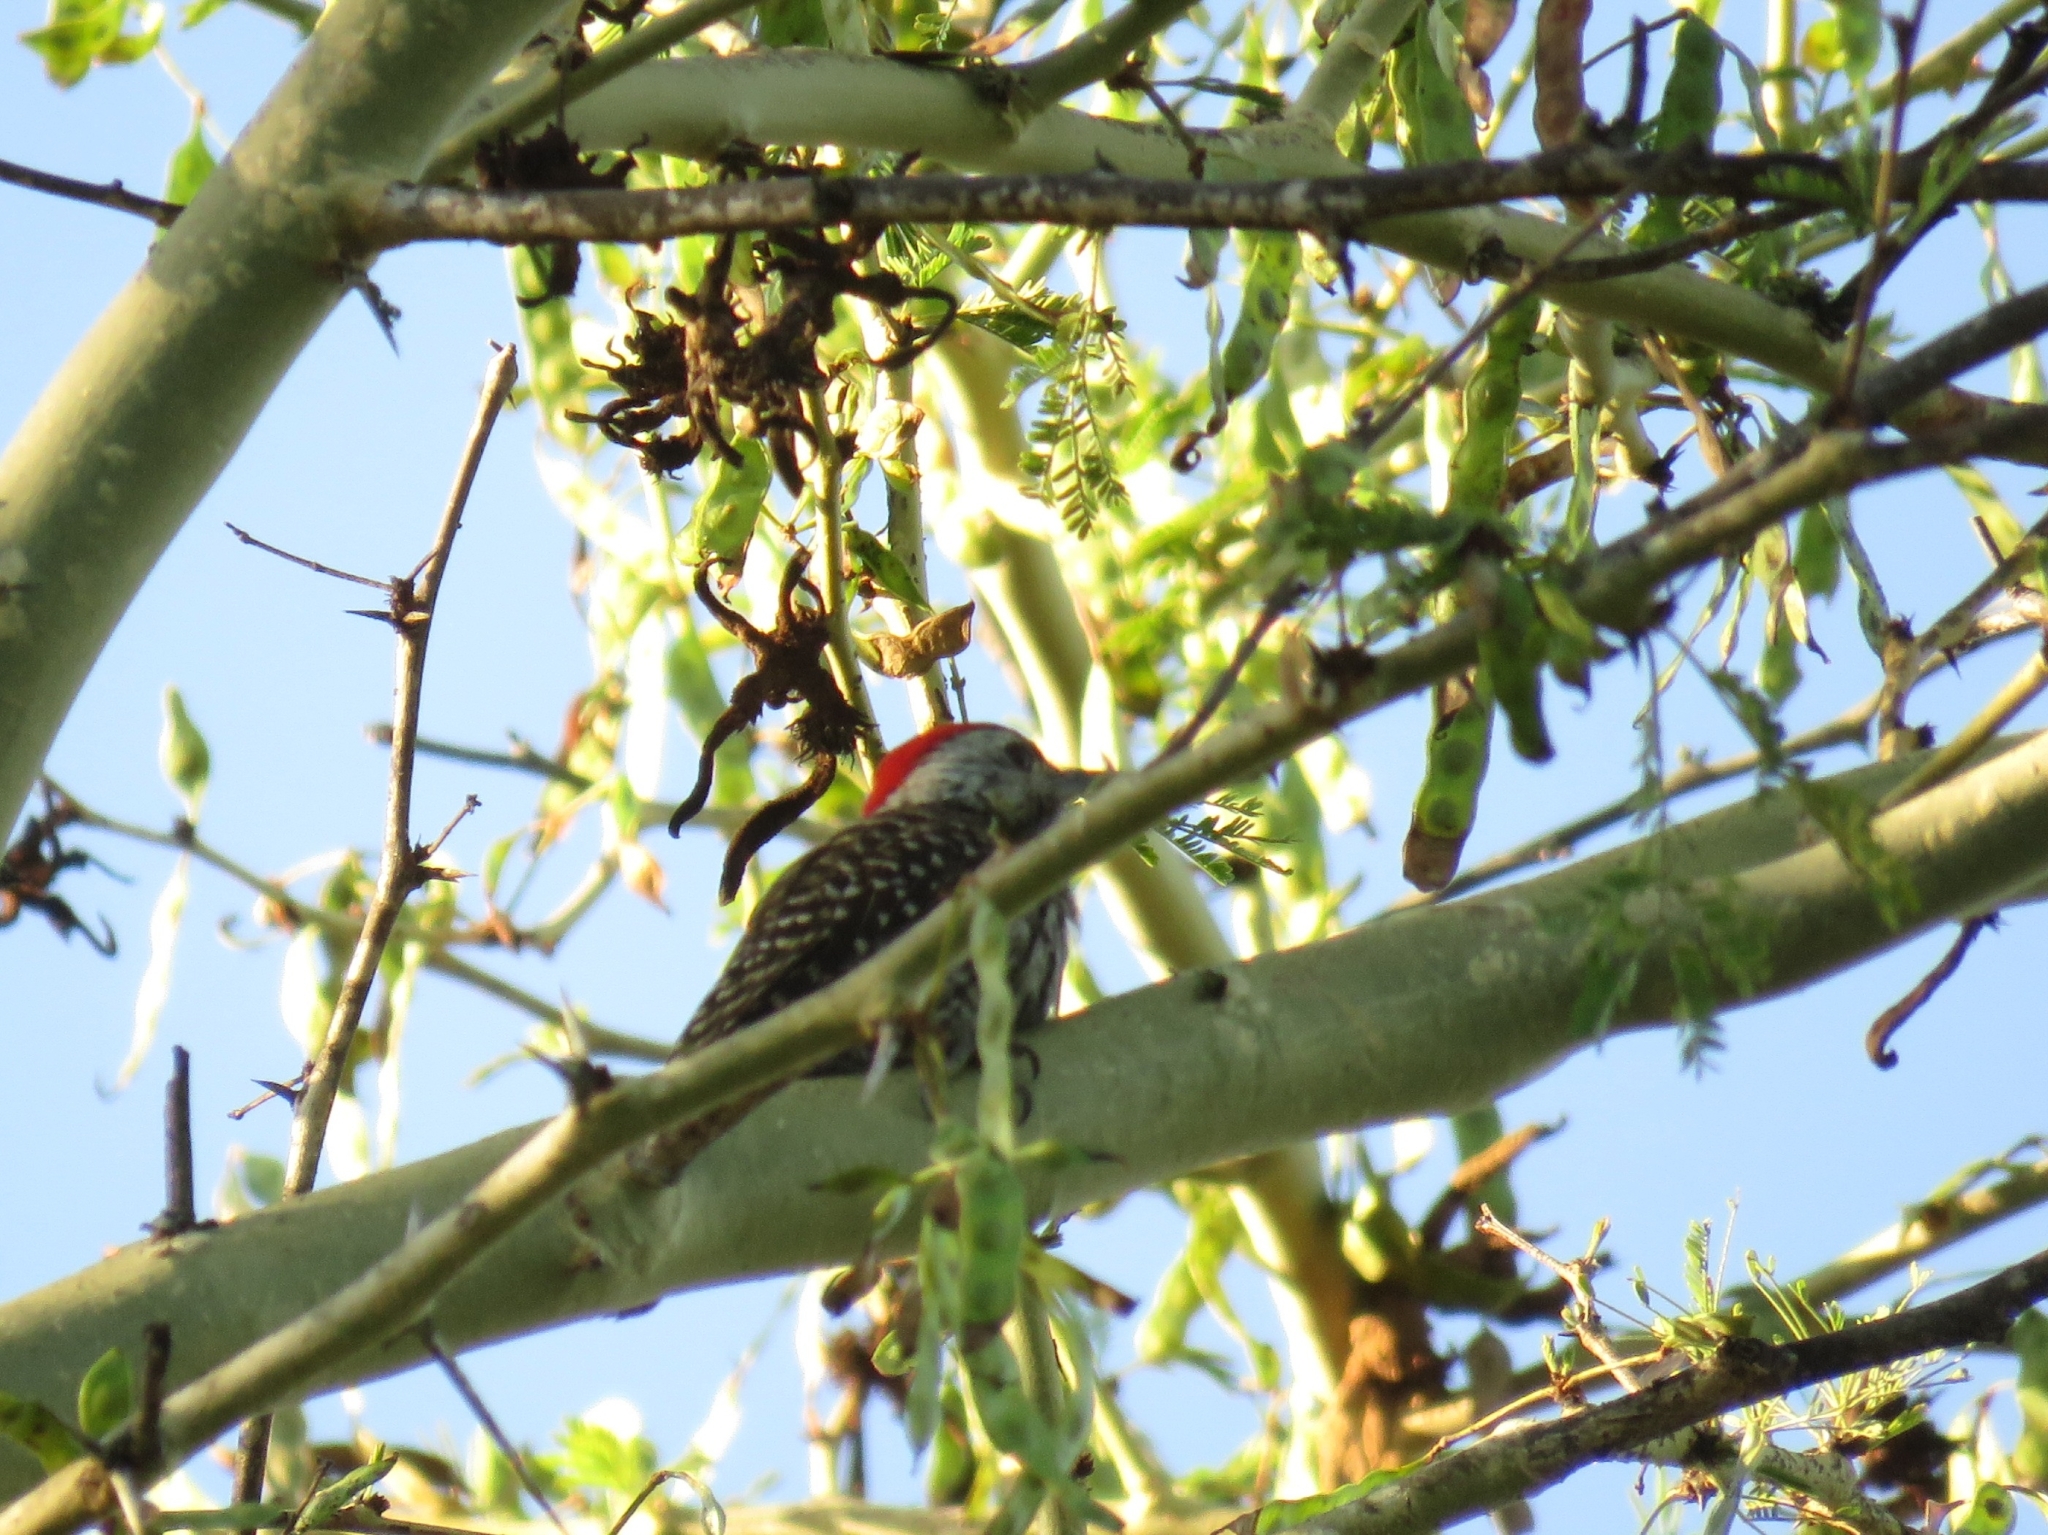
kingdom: Animalia
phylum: Chordata
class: Aves
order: Piciformes
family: Picidae
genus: Dendropicos
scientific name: Dendropicos fuscescens
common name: Cardinal woodpecker
